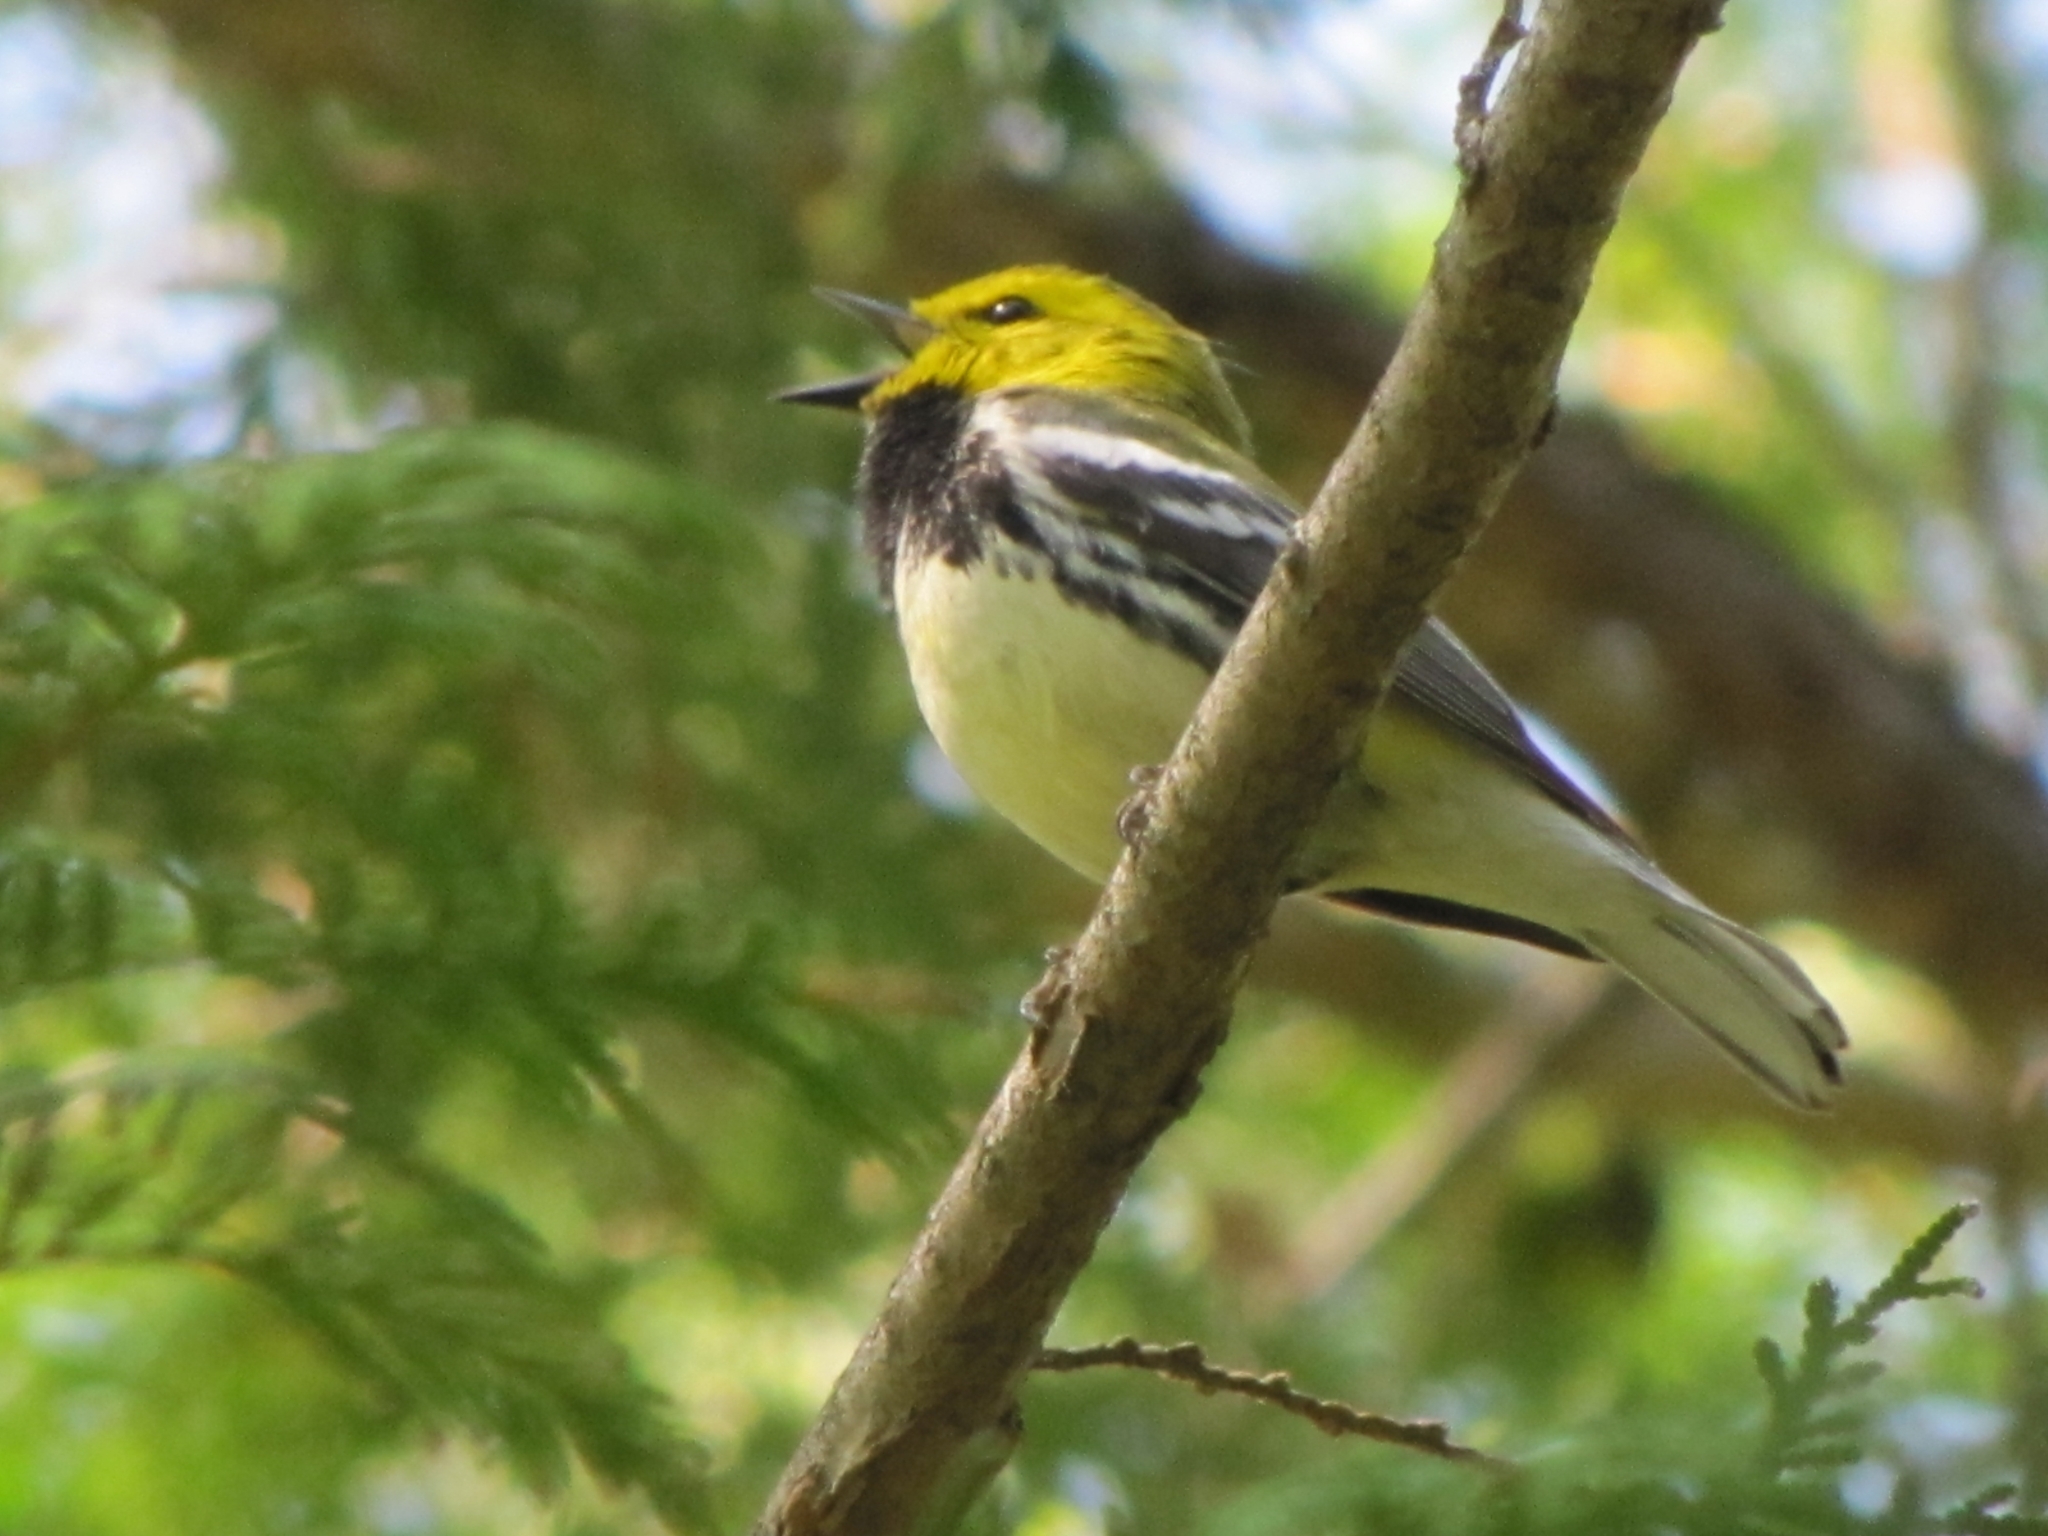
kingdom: Animalia
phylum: Chordata
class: Aves
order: Passeriformes
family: Parulidae
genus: Setophaga
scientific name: Setophaga virens
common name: Black-throated green warbler
